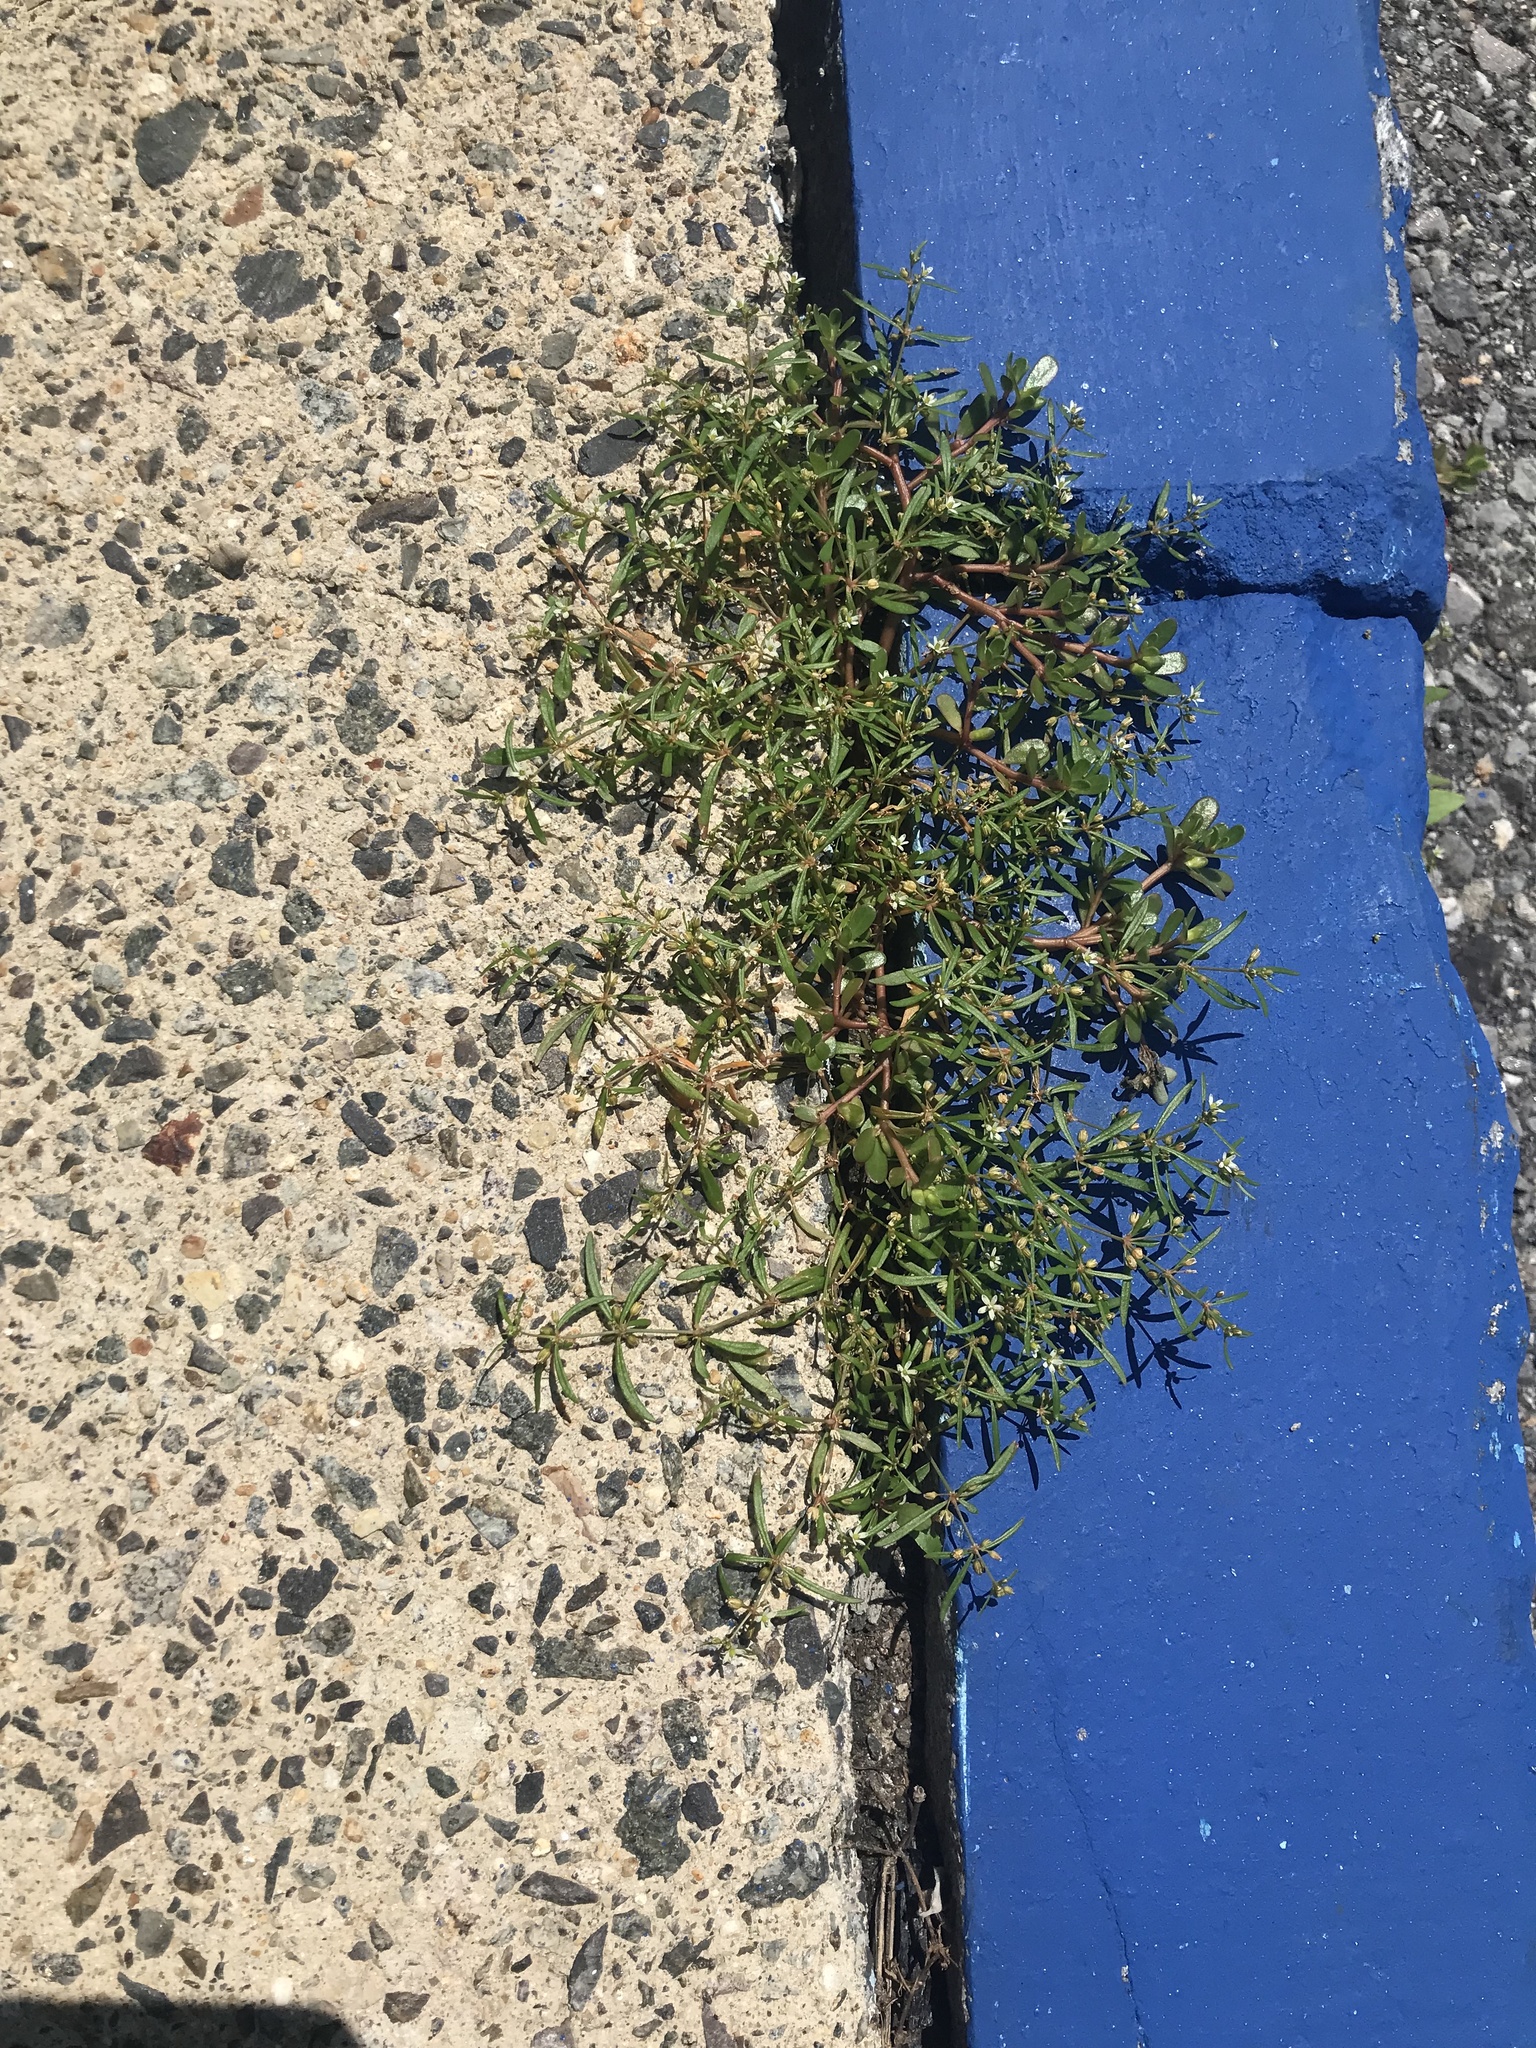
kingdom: Plantae
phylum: Tracheophyta
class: Magnoliopsida
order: Caryophyllales
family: Molluginaceae
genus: Mollugo
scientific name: Mollugo verticillata
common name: Green carpetweed
